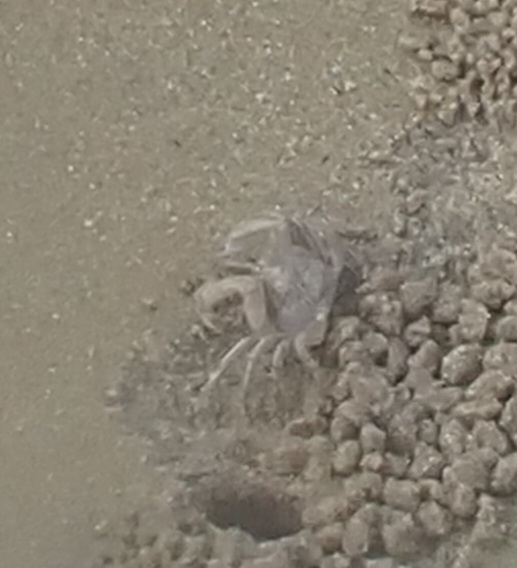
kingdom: Animalia
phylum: Arthropoda
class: Malacostraca
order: Decapoda
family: Dotillidae
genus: Dotilla
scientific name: Dotilla myctiroides
